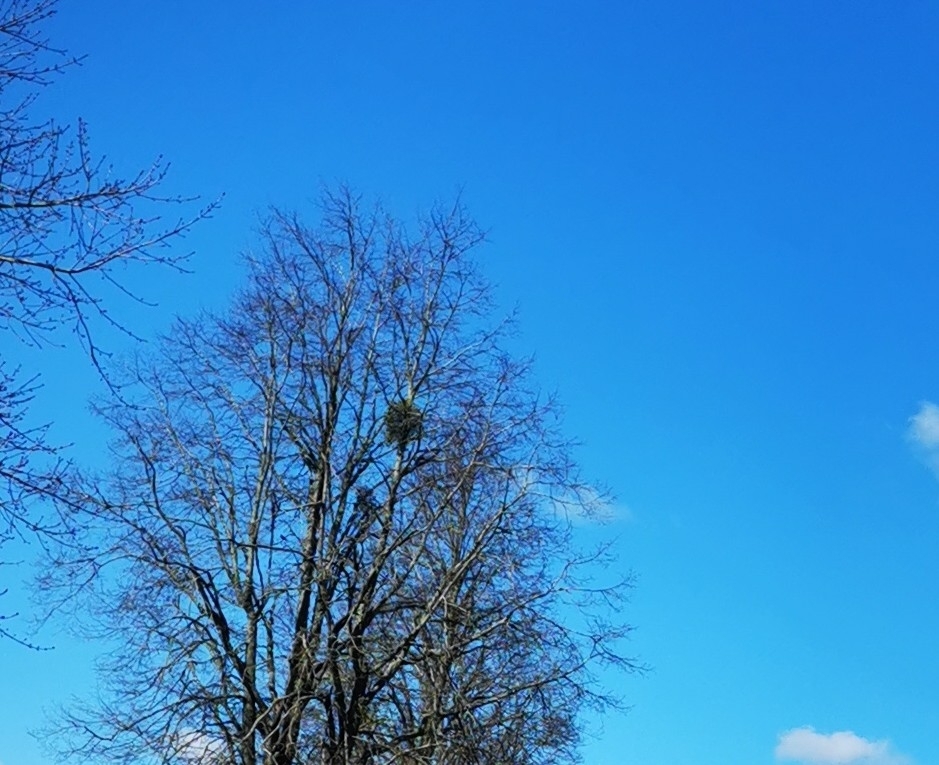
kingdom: Plantae
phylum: Tracheophyta
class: Magnoliopsida
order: Santalales
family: Viscaceae
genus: Viscum
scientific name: Viscum album
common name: Mistletoe
